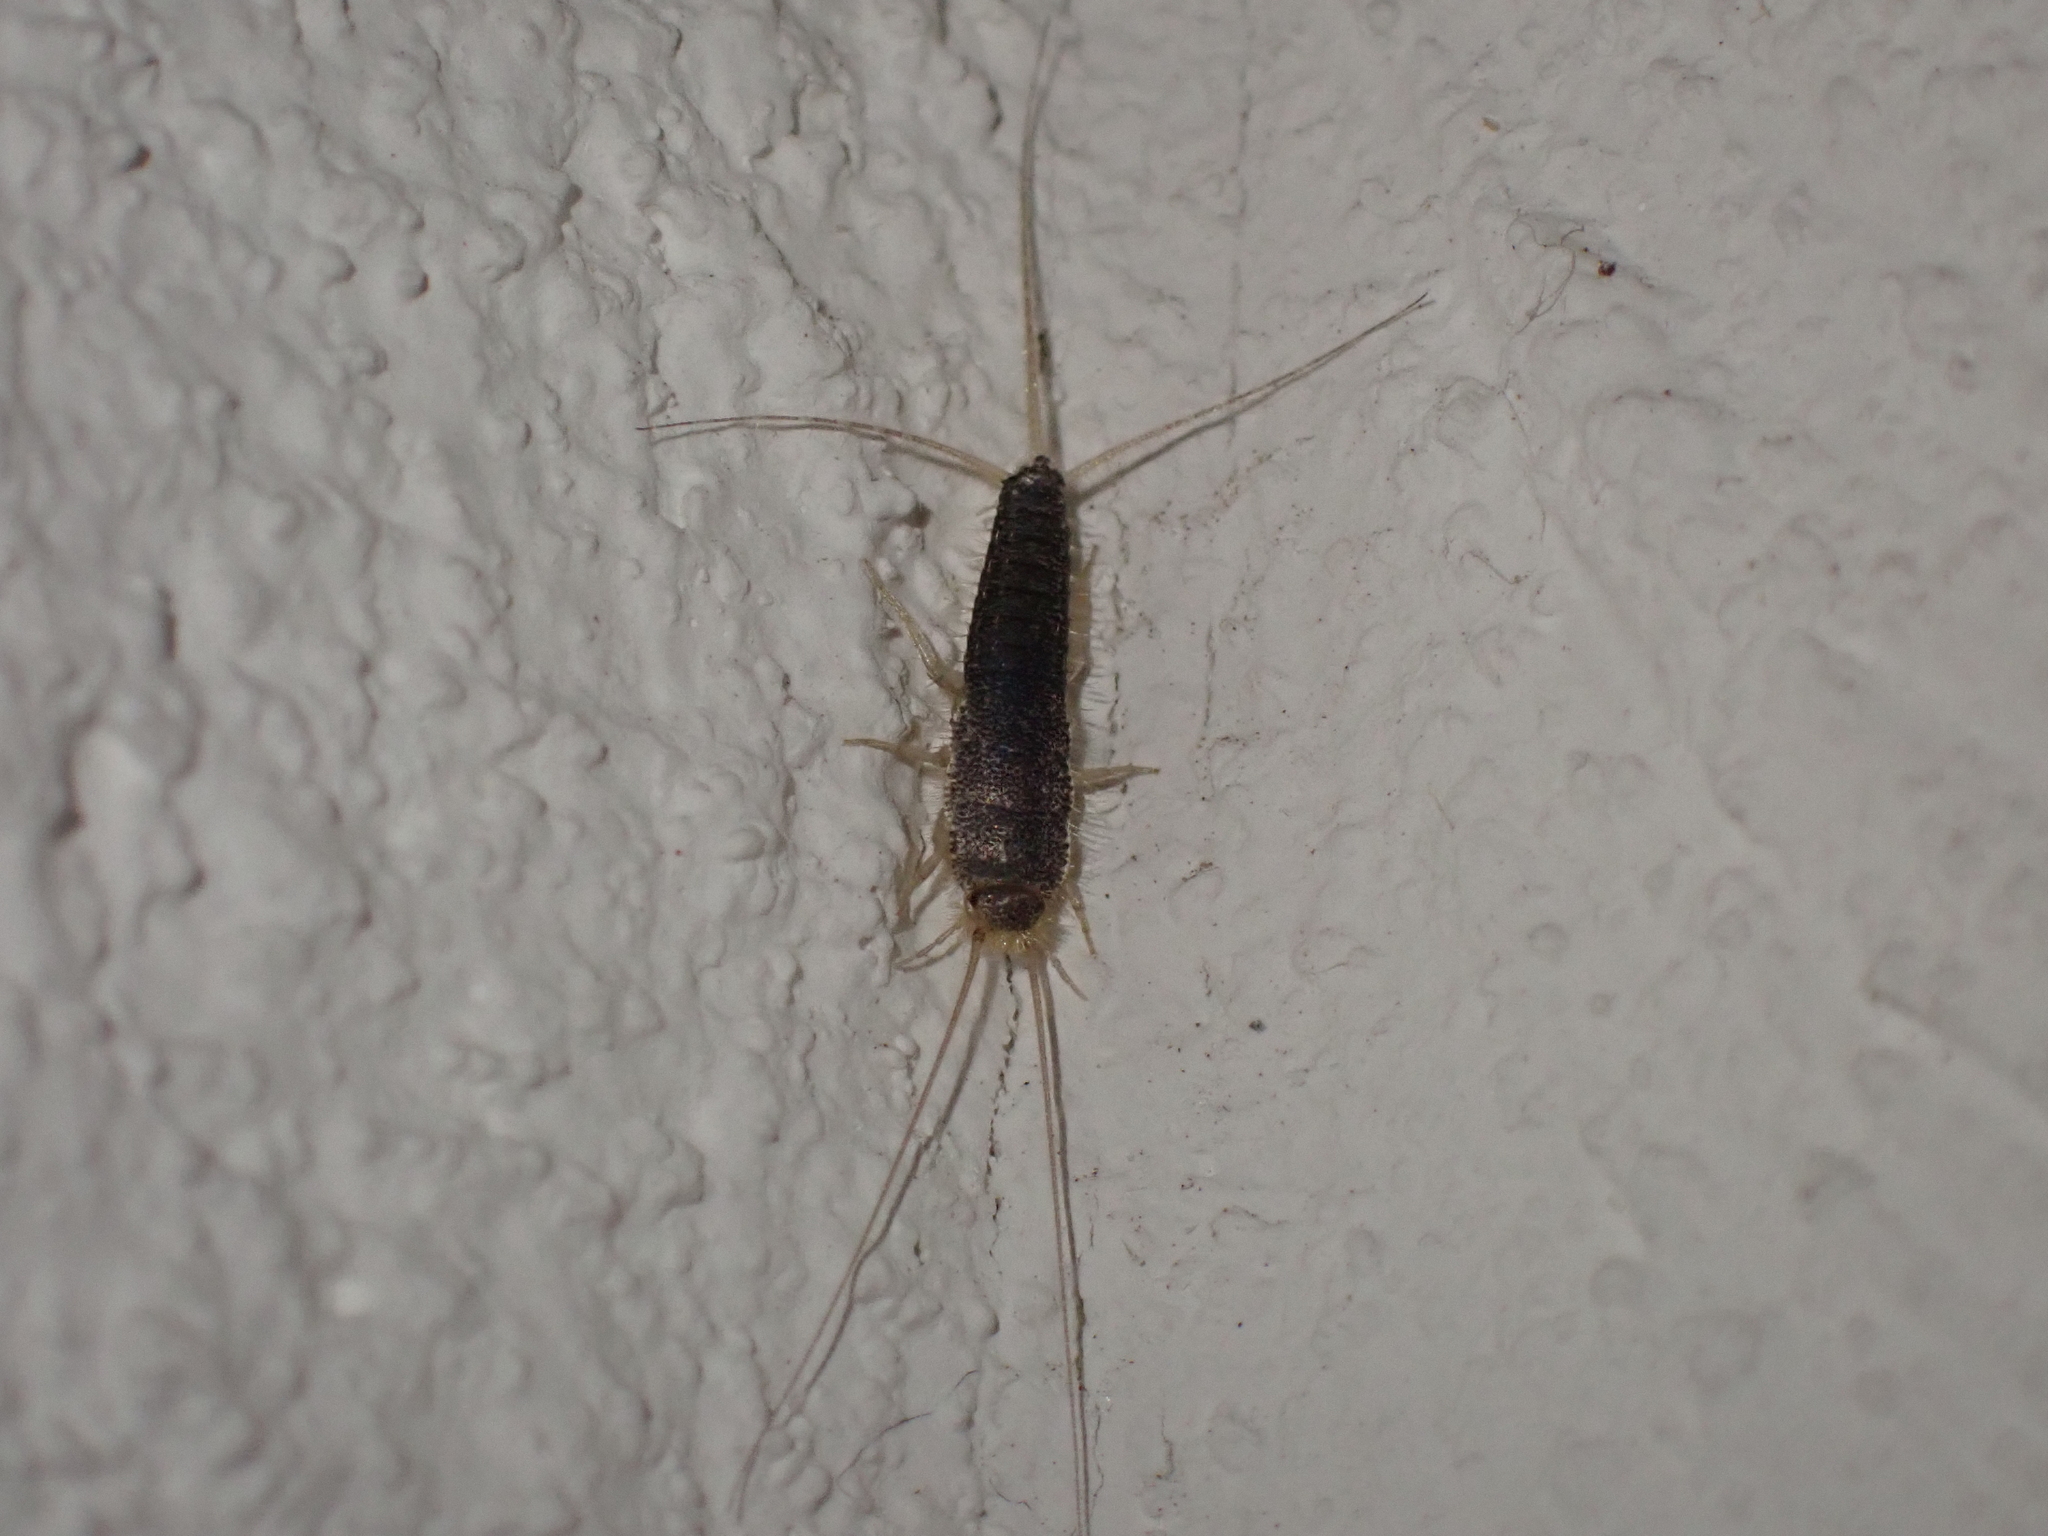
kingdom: Animalia
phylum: Arthropoda
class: Insecta
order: Zygentoma
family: Lepismatidae
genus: Ctenolepisma
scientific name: Ctenolepisma longicaudatum
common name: Silverfish
